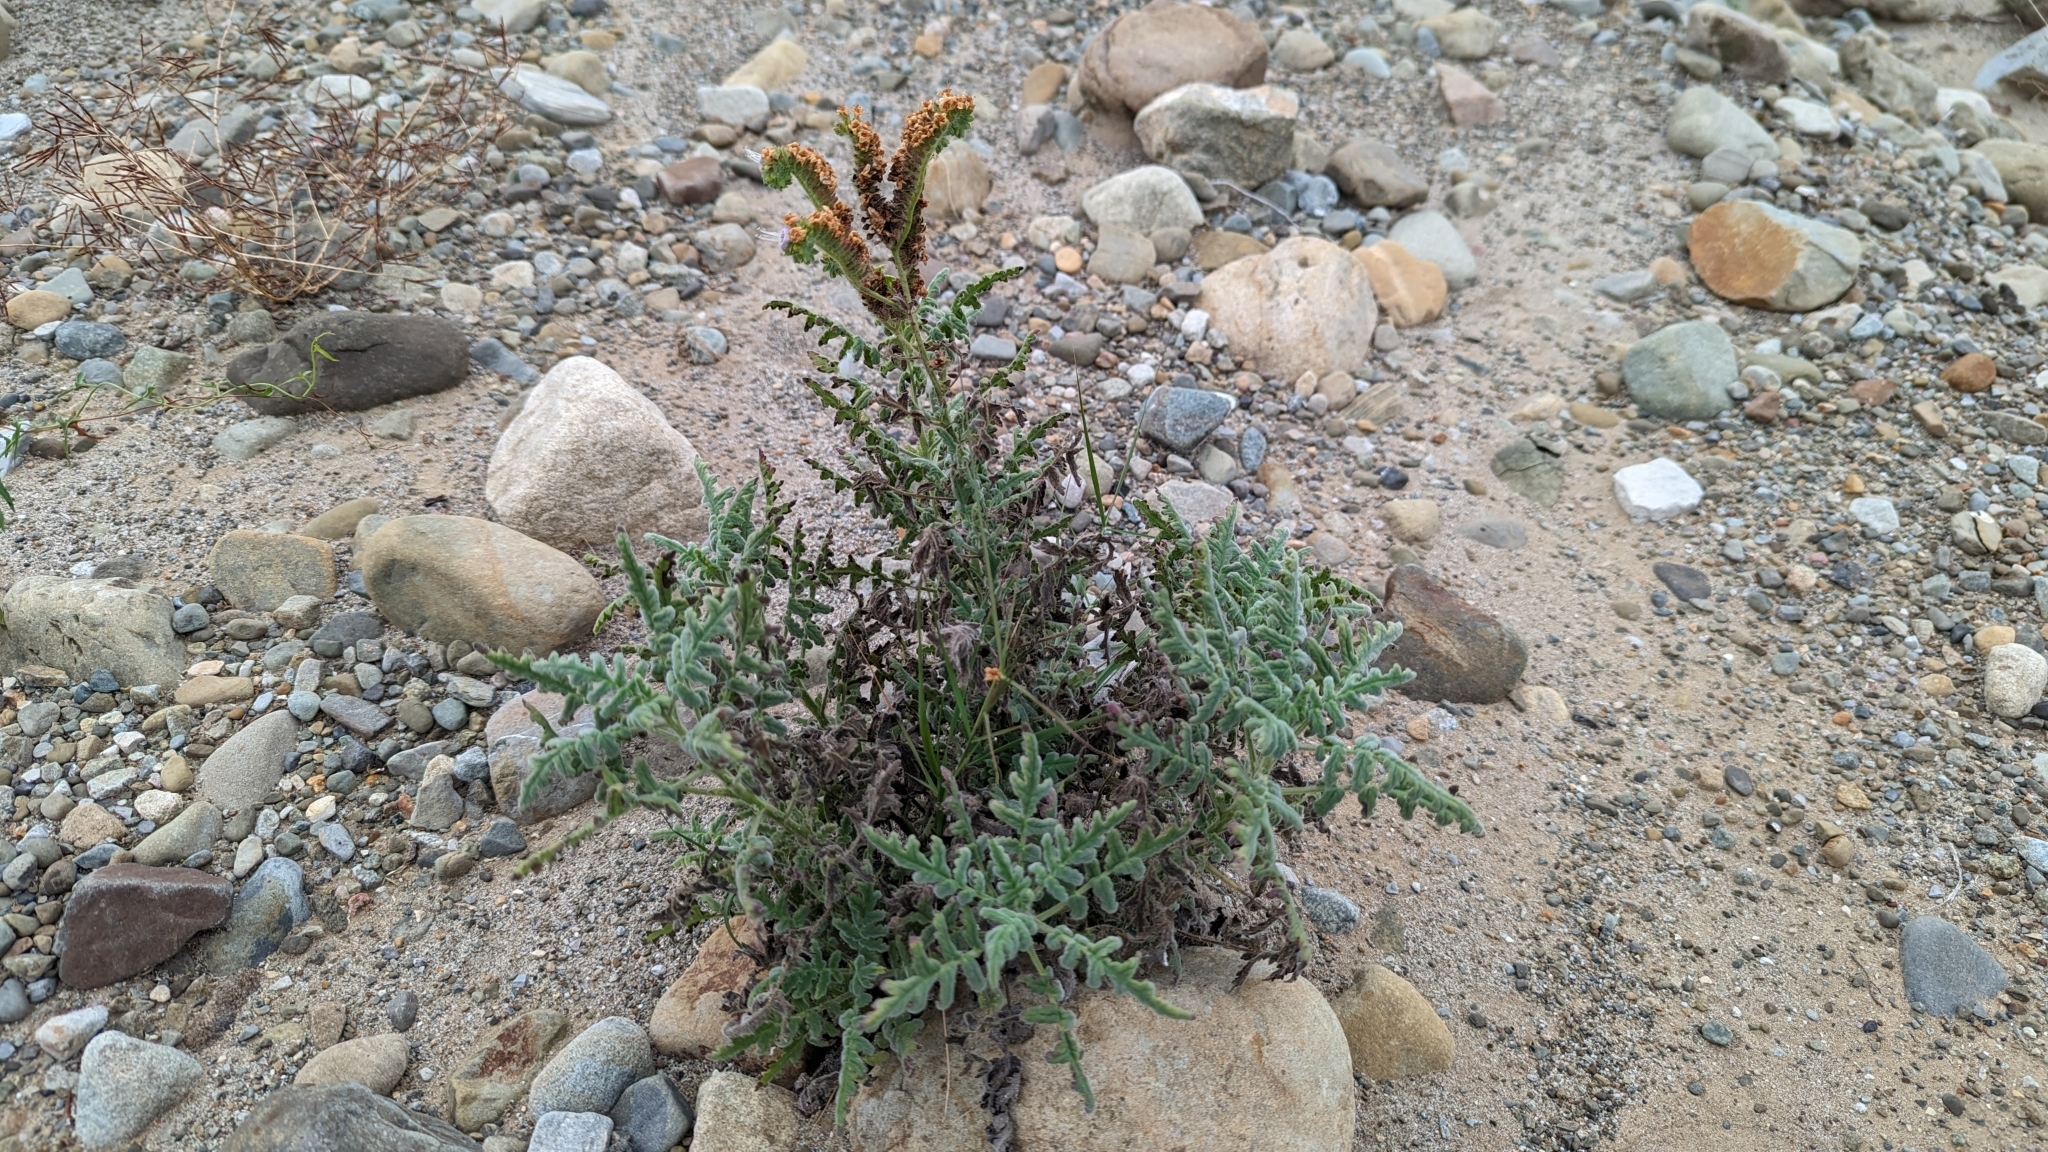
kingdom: Plantae
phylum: Tracheophyta
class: Magnoliopsida
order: Boraginales
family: Hydrophyllaceae
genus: Phacelia
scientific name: Phacelia ramosissima
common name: Branching phacelia
